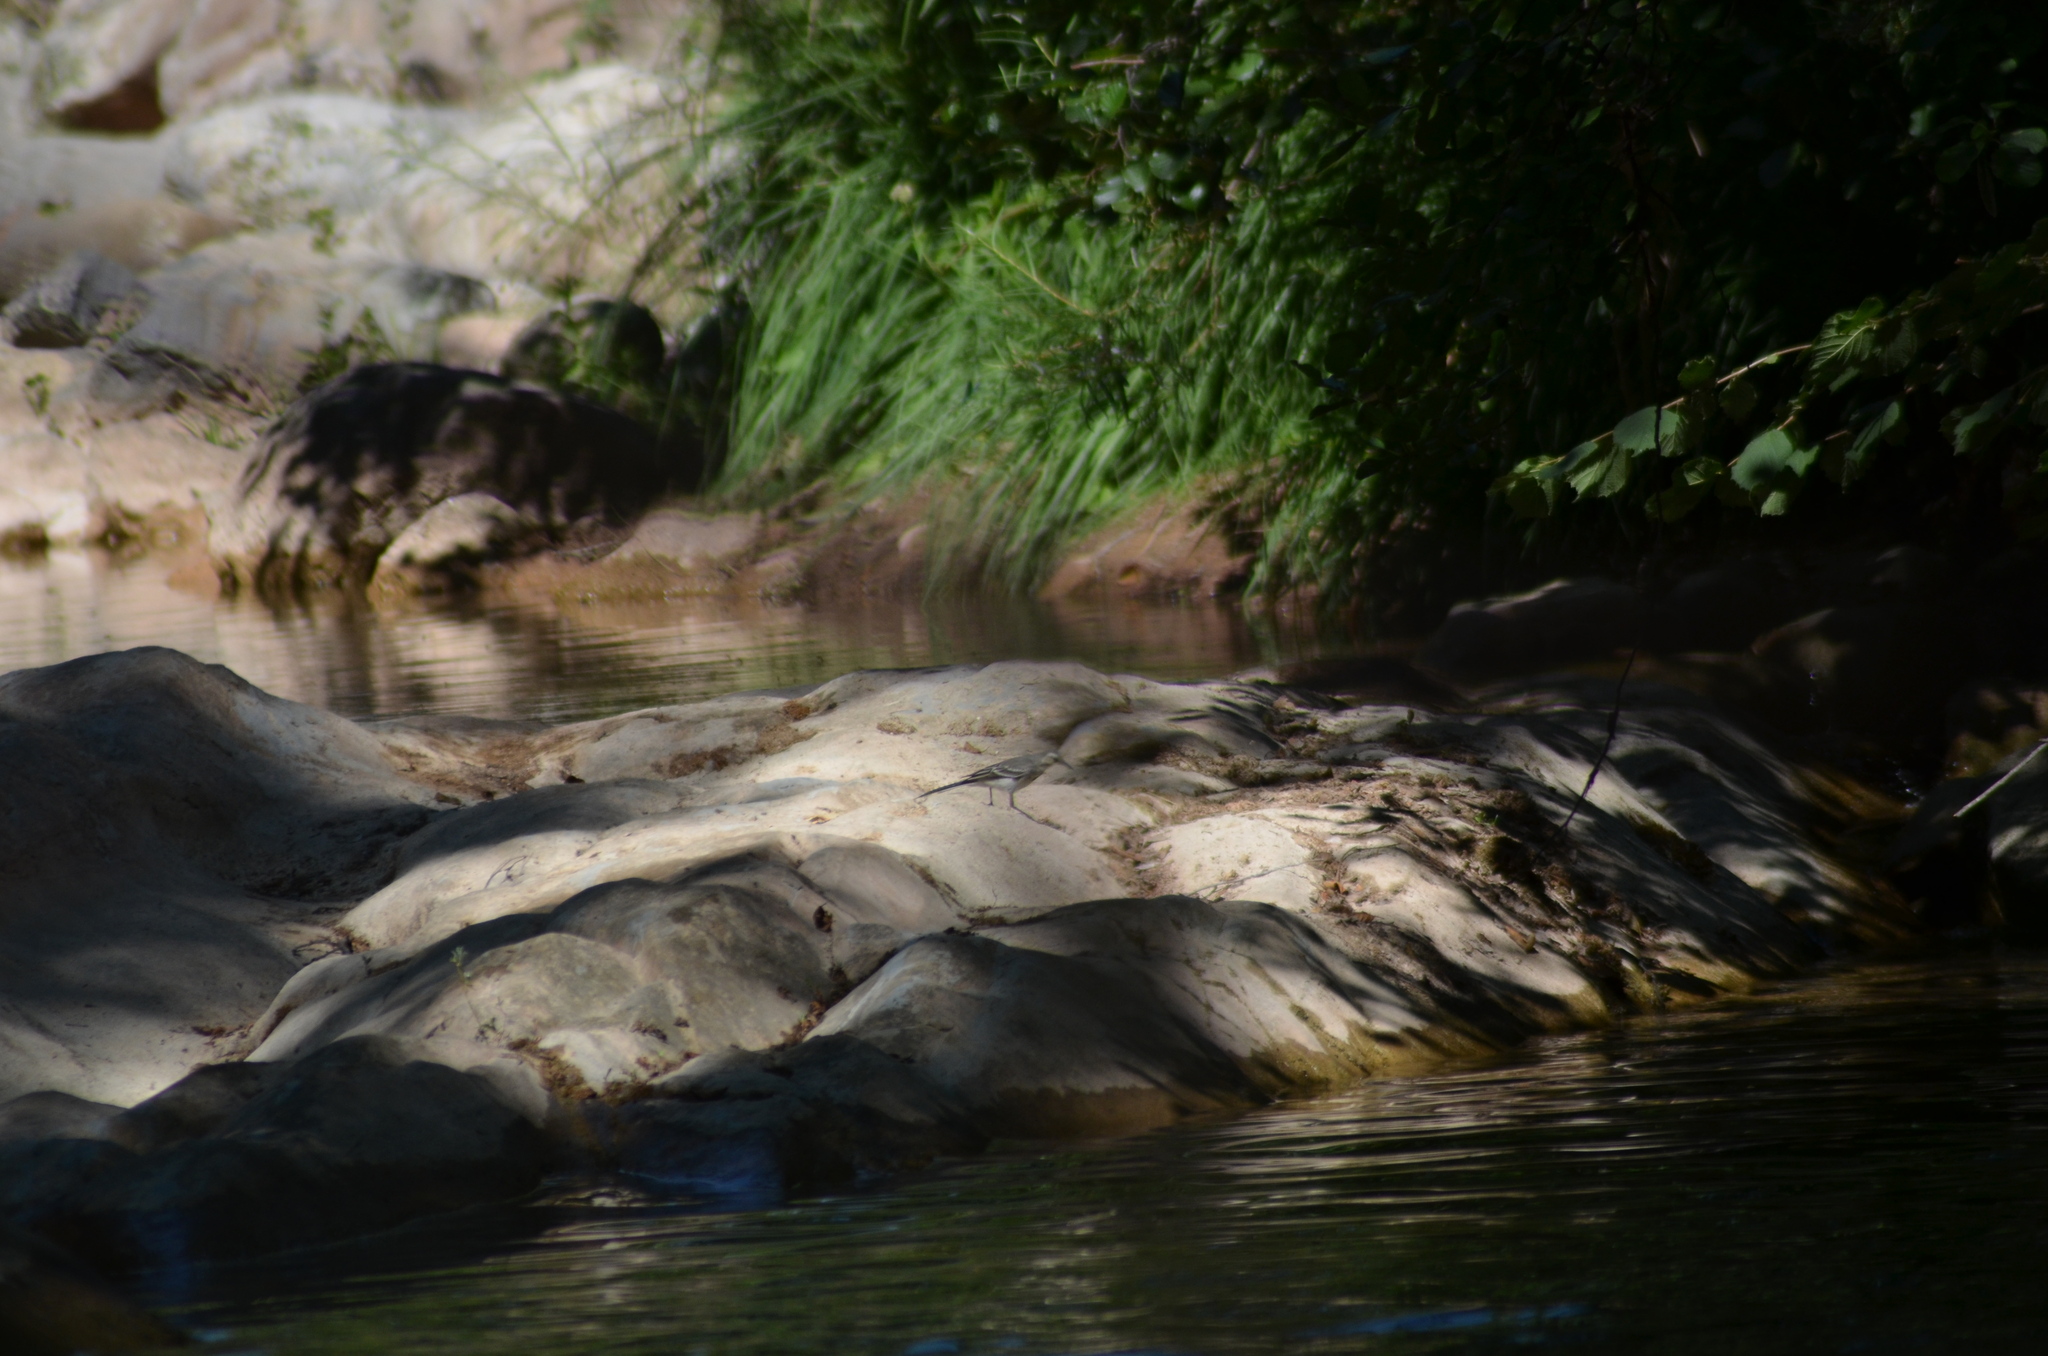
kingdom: Animalia
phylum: Chordata
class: Aves
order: Passeriformes
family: Motacillidae
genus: Motacilla
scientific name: Motacilla alba
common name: White wagtail
